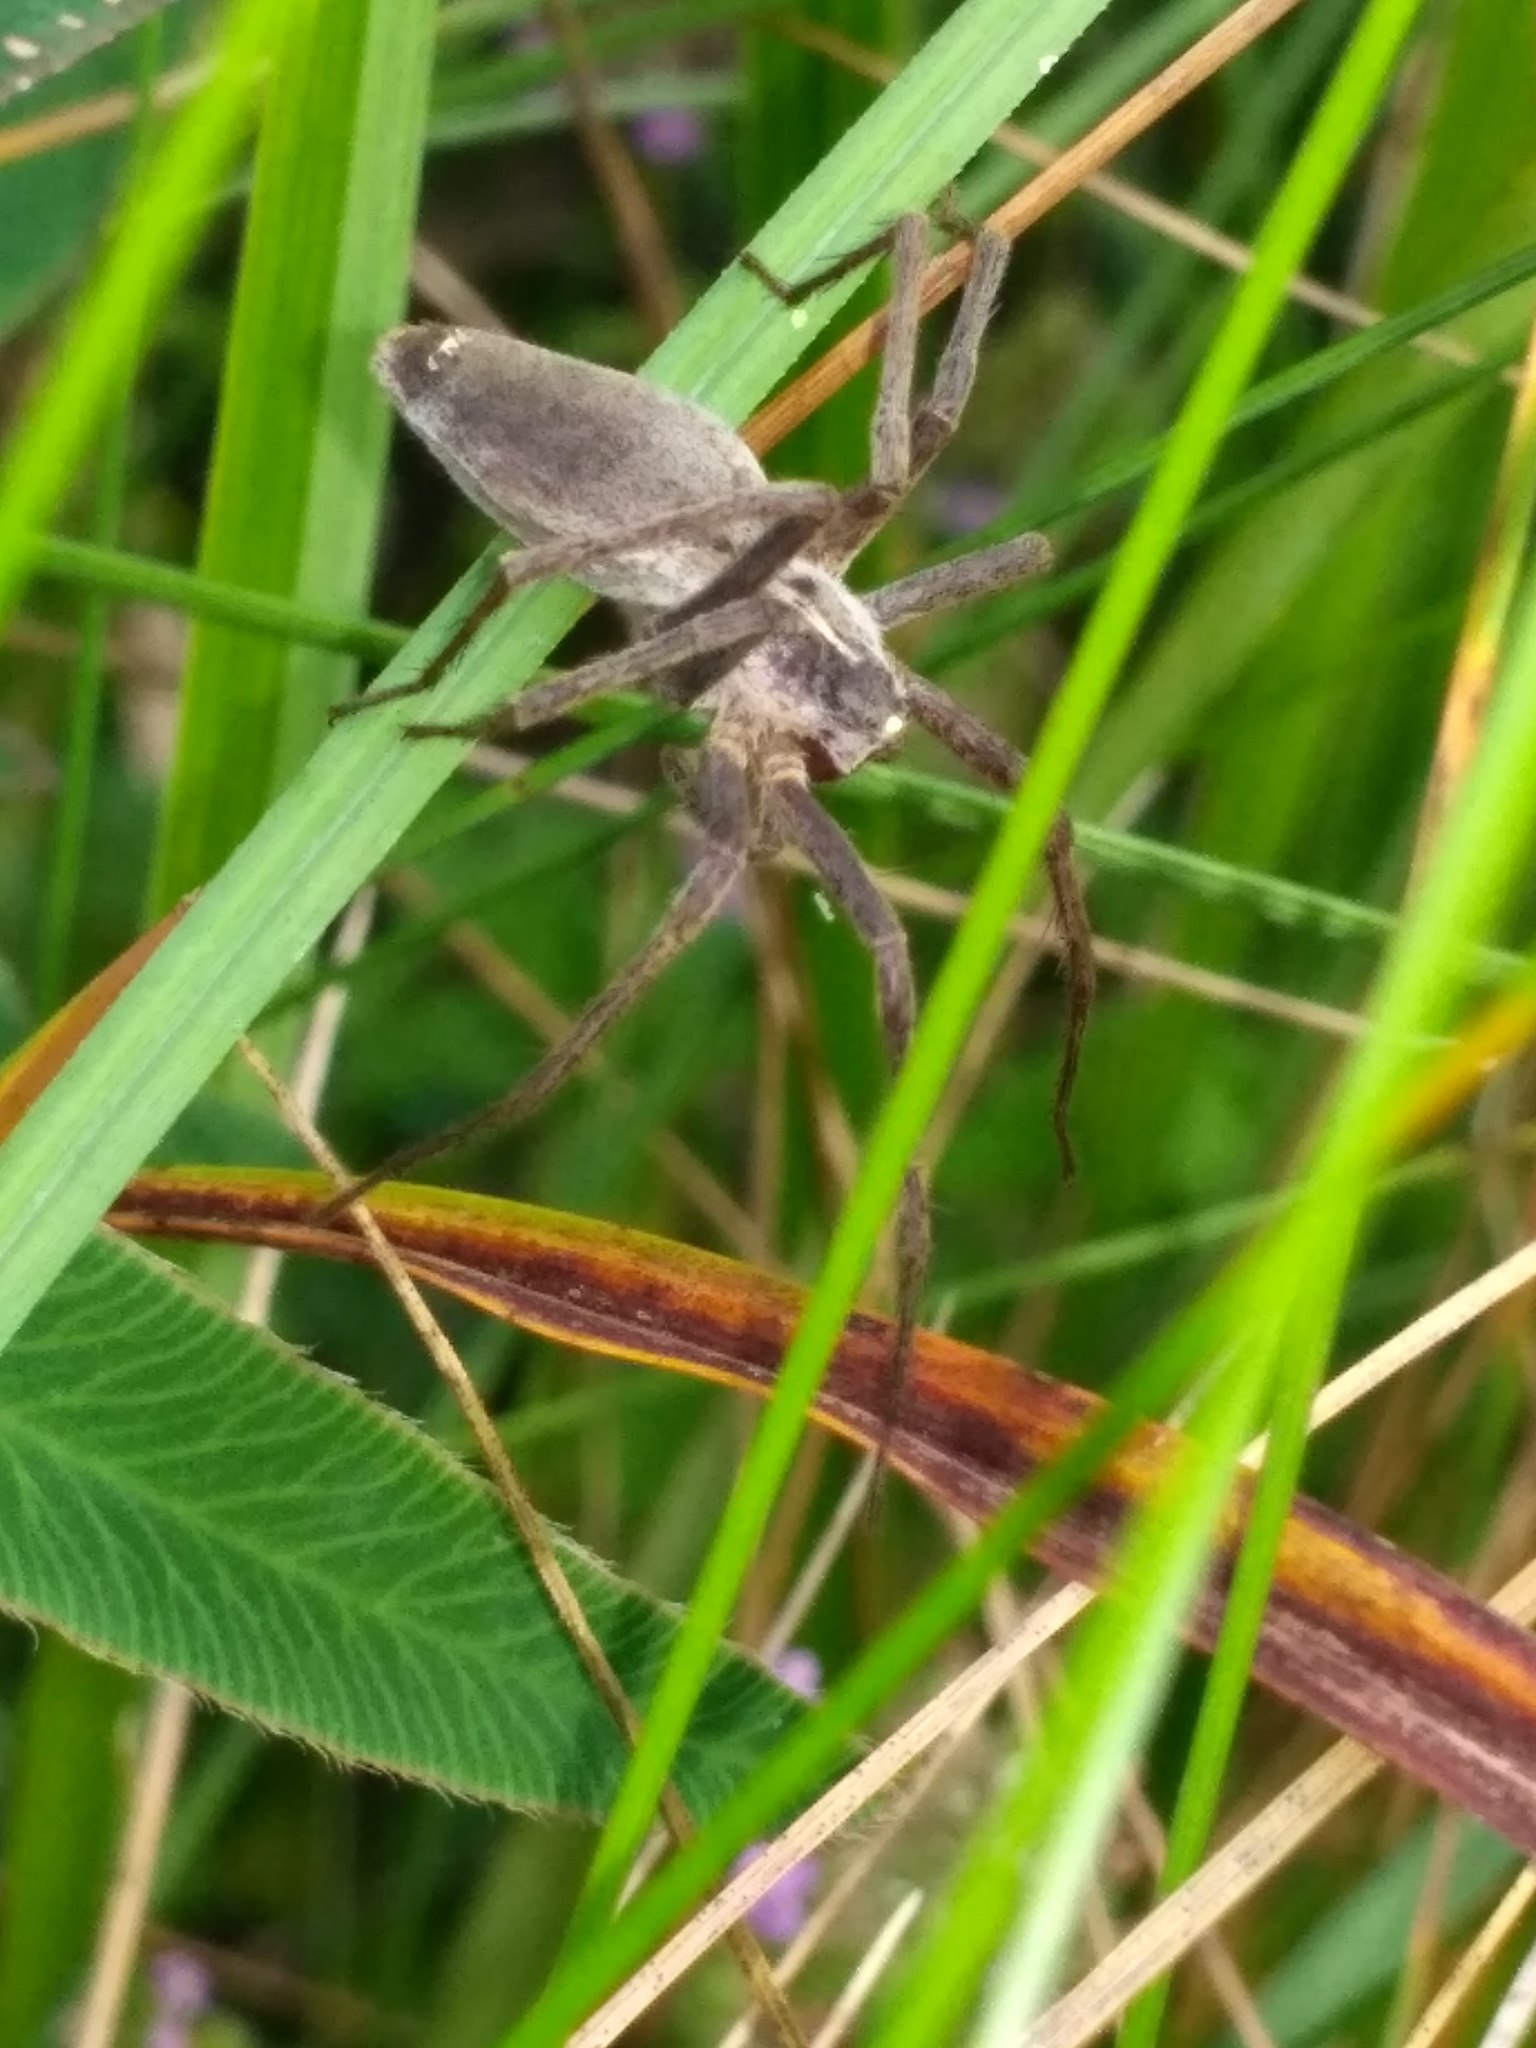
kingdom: Animalia
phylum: Arthropoda
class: Arachnida
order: Araneae
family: Pisauridae
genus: Pisaura
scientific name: Pisaura
